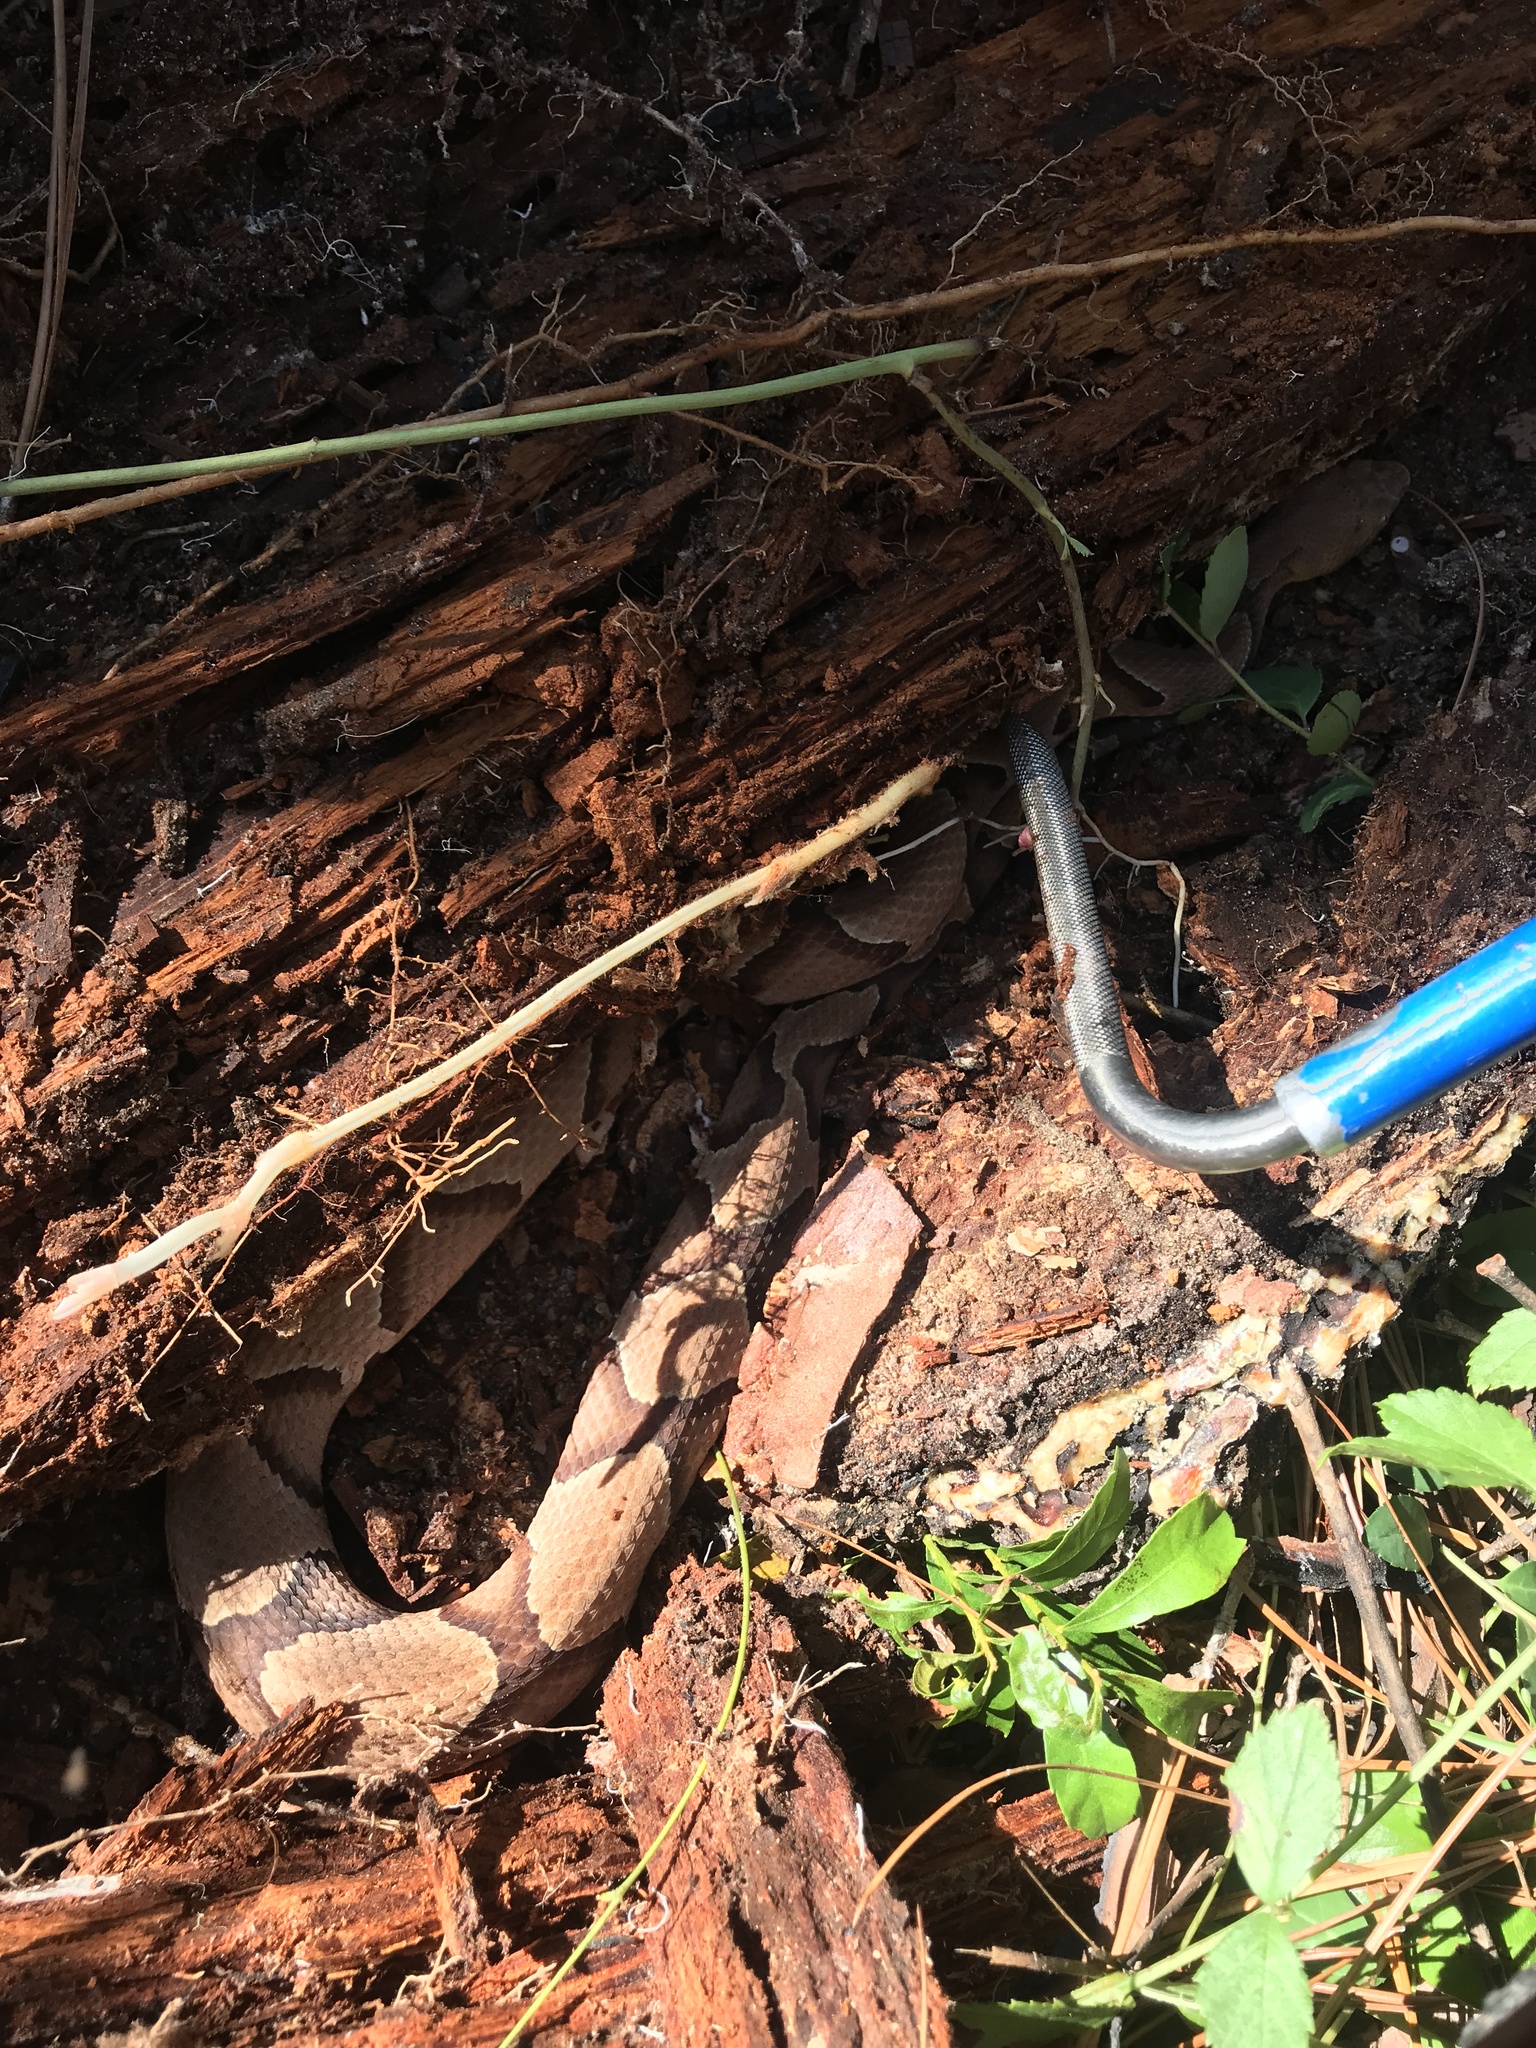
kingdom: Animalia
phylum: Chordata
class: Squamata
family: Viperidae
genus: Agkistrodon
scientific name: Agkistrodon contortrix
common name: Northern copperhead
